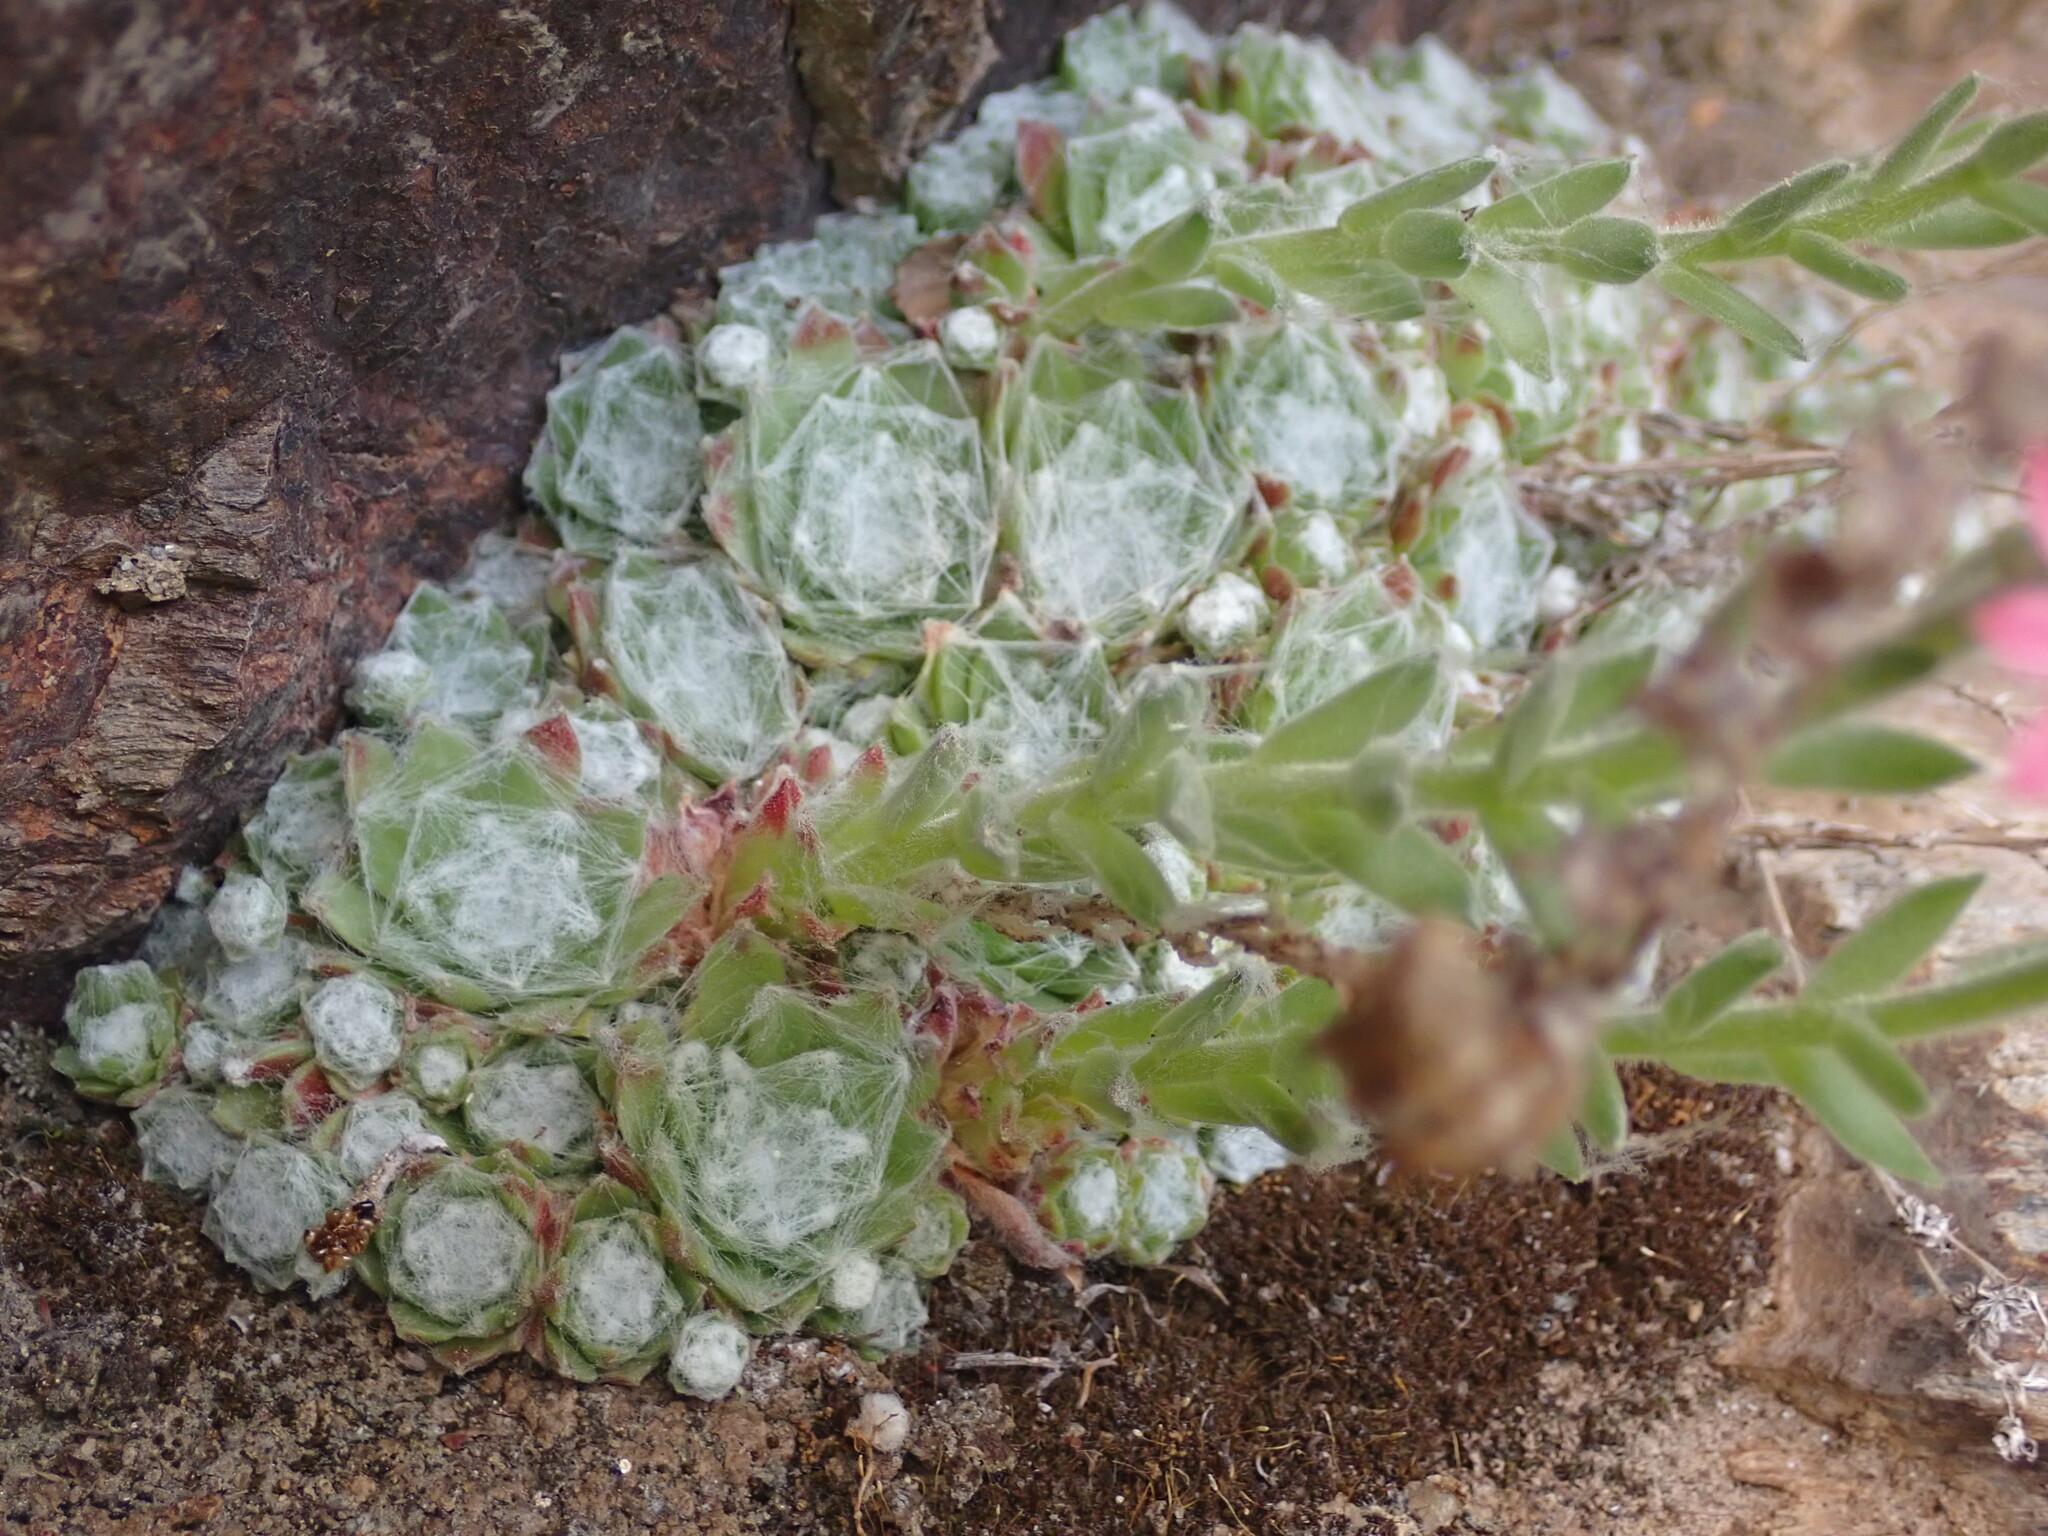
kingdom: Plantae
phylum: Tracheophyta
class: Magnoliopsida
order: Saxifragales
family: Crassulaceae
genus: Sempervivum
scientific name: Sempervivum arachnoideum
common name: Cobweb house-leek
